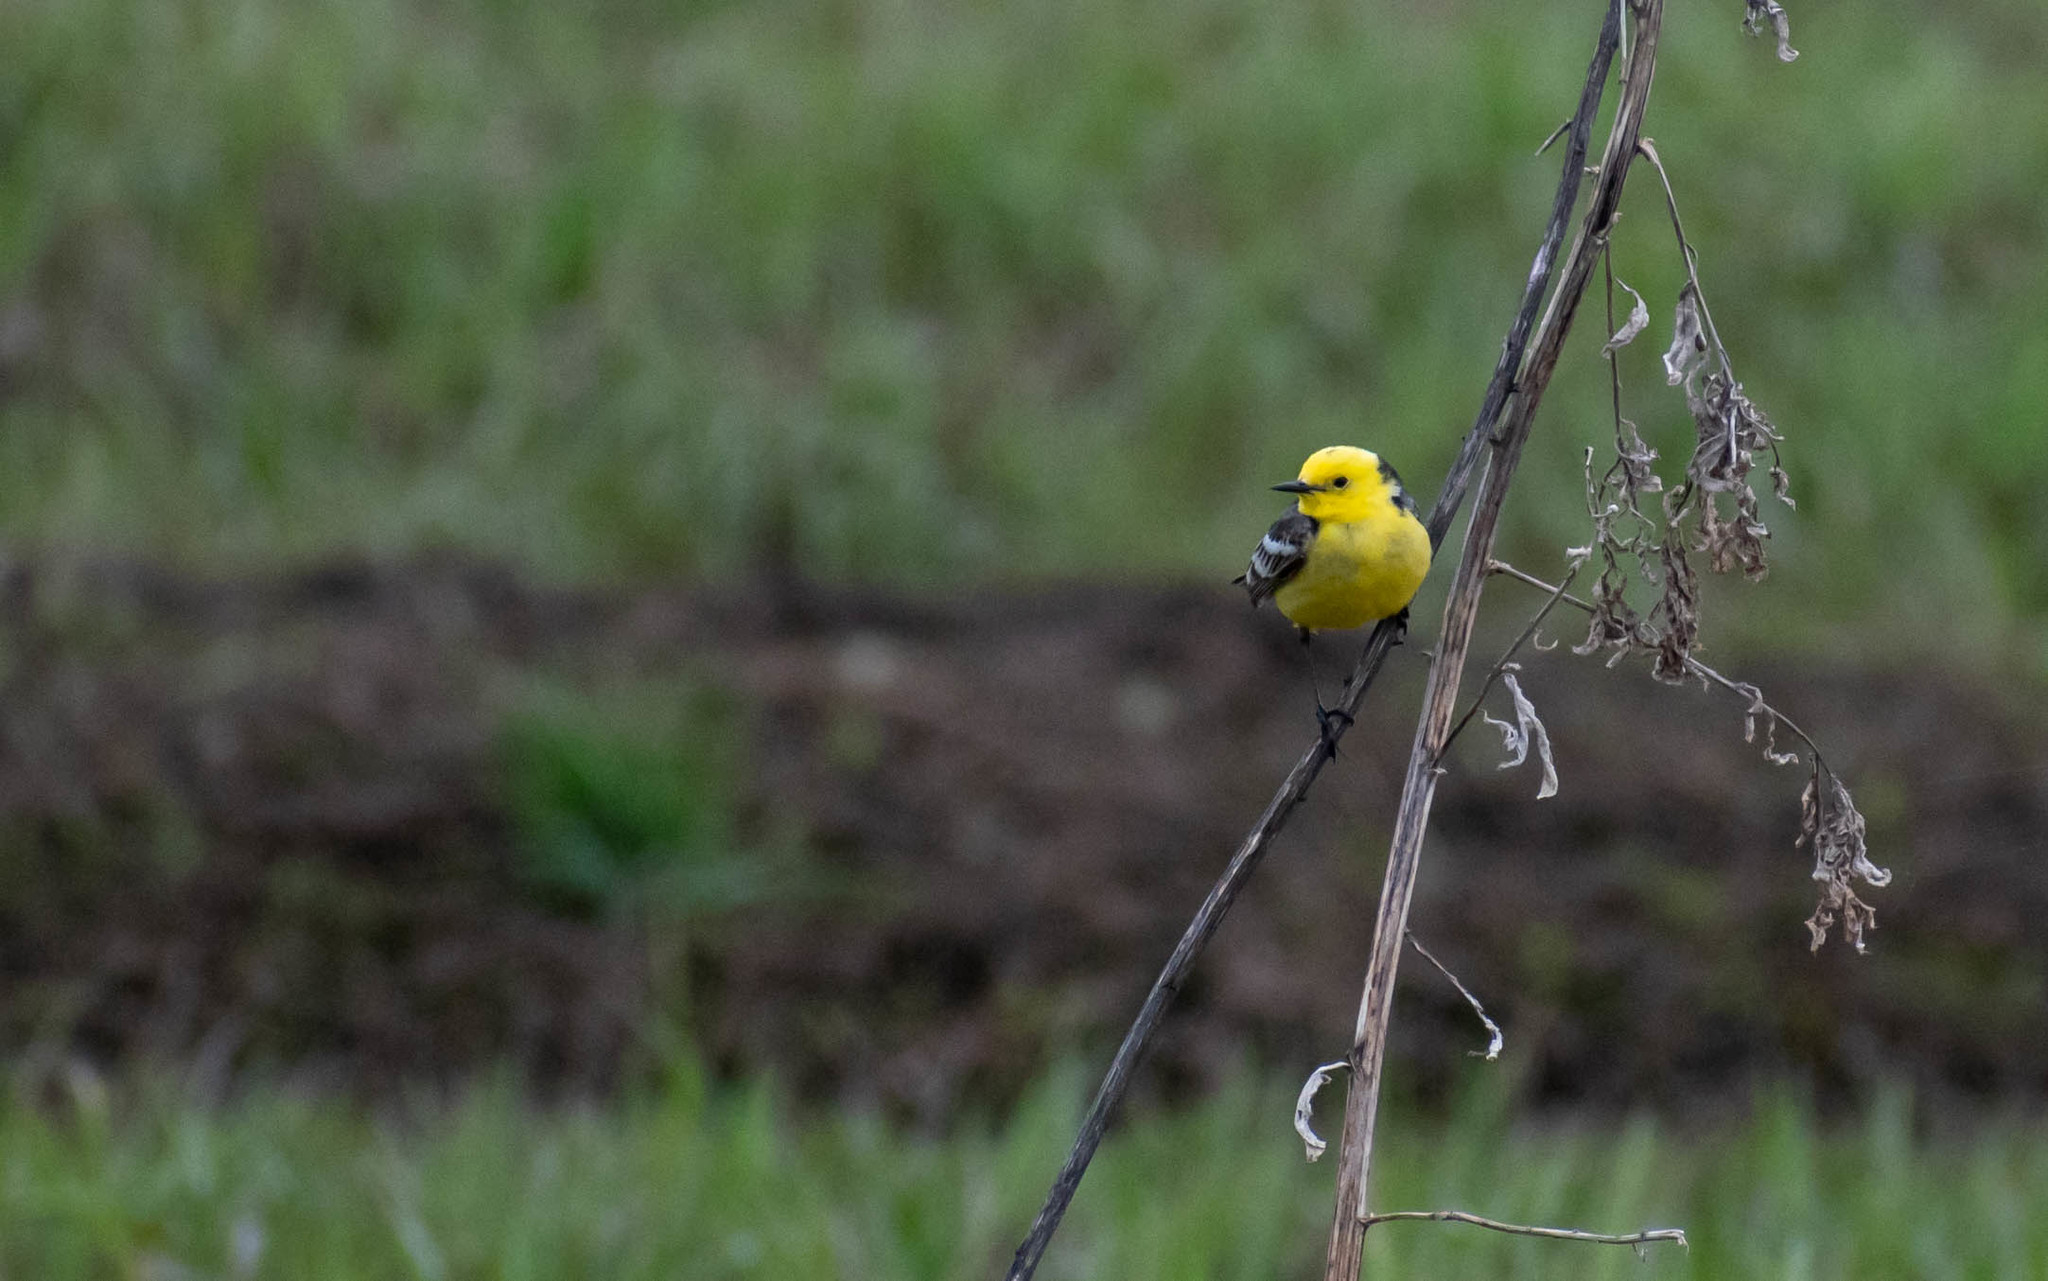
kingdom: Animalia
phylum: Chordata
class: Aves
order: Passeriformes
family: Motacillidae
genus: Motacilla
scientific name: Motacilla citreola
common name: Citrine wagtail
